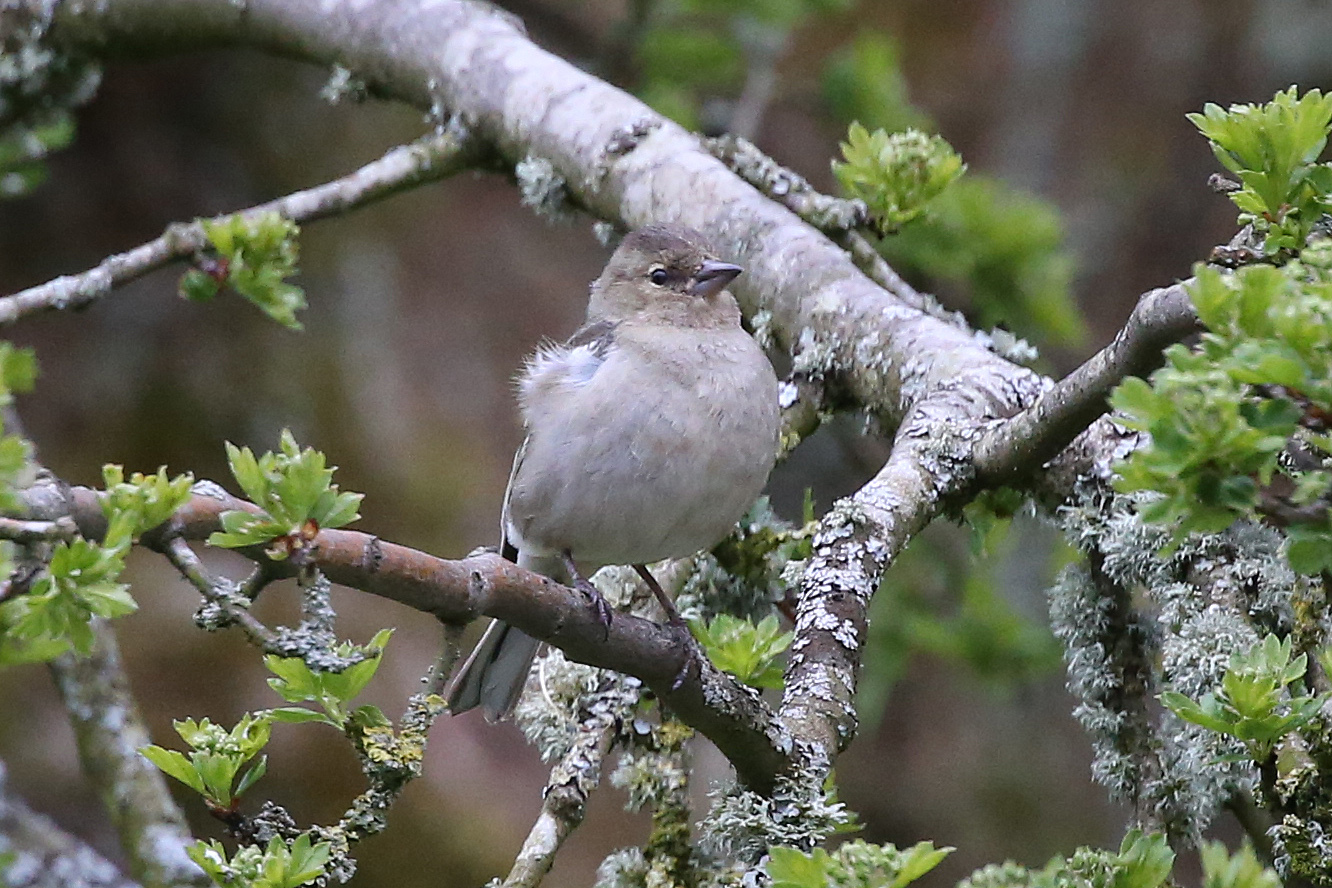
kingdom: Animalia
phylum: Chordata
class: Aves
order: Passeriformes
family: Fringillidae
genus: Fringilla
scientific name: Fringilla coelebs
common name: Common chaffinch
